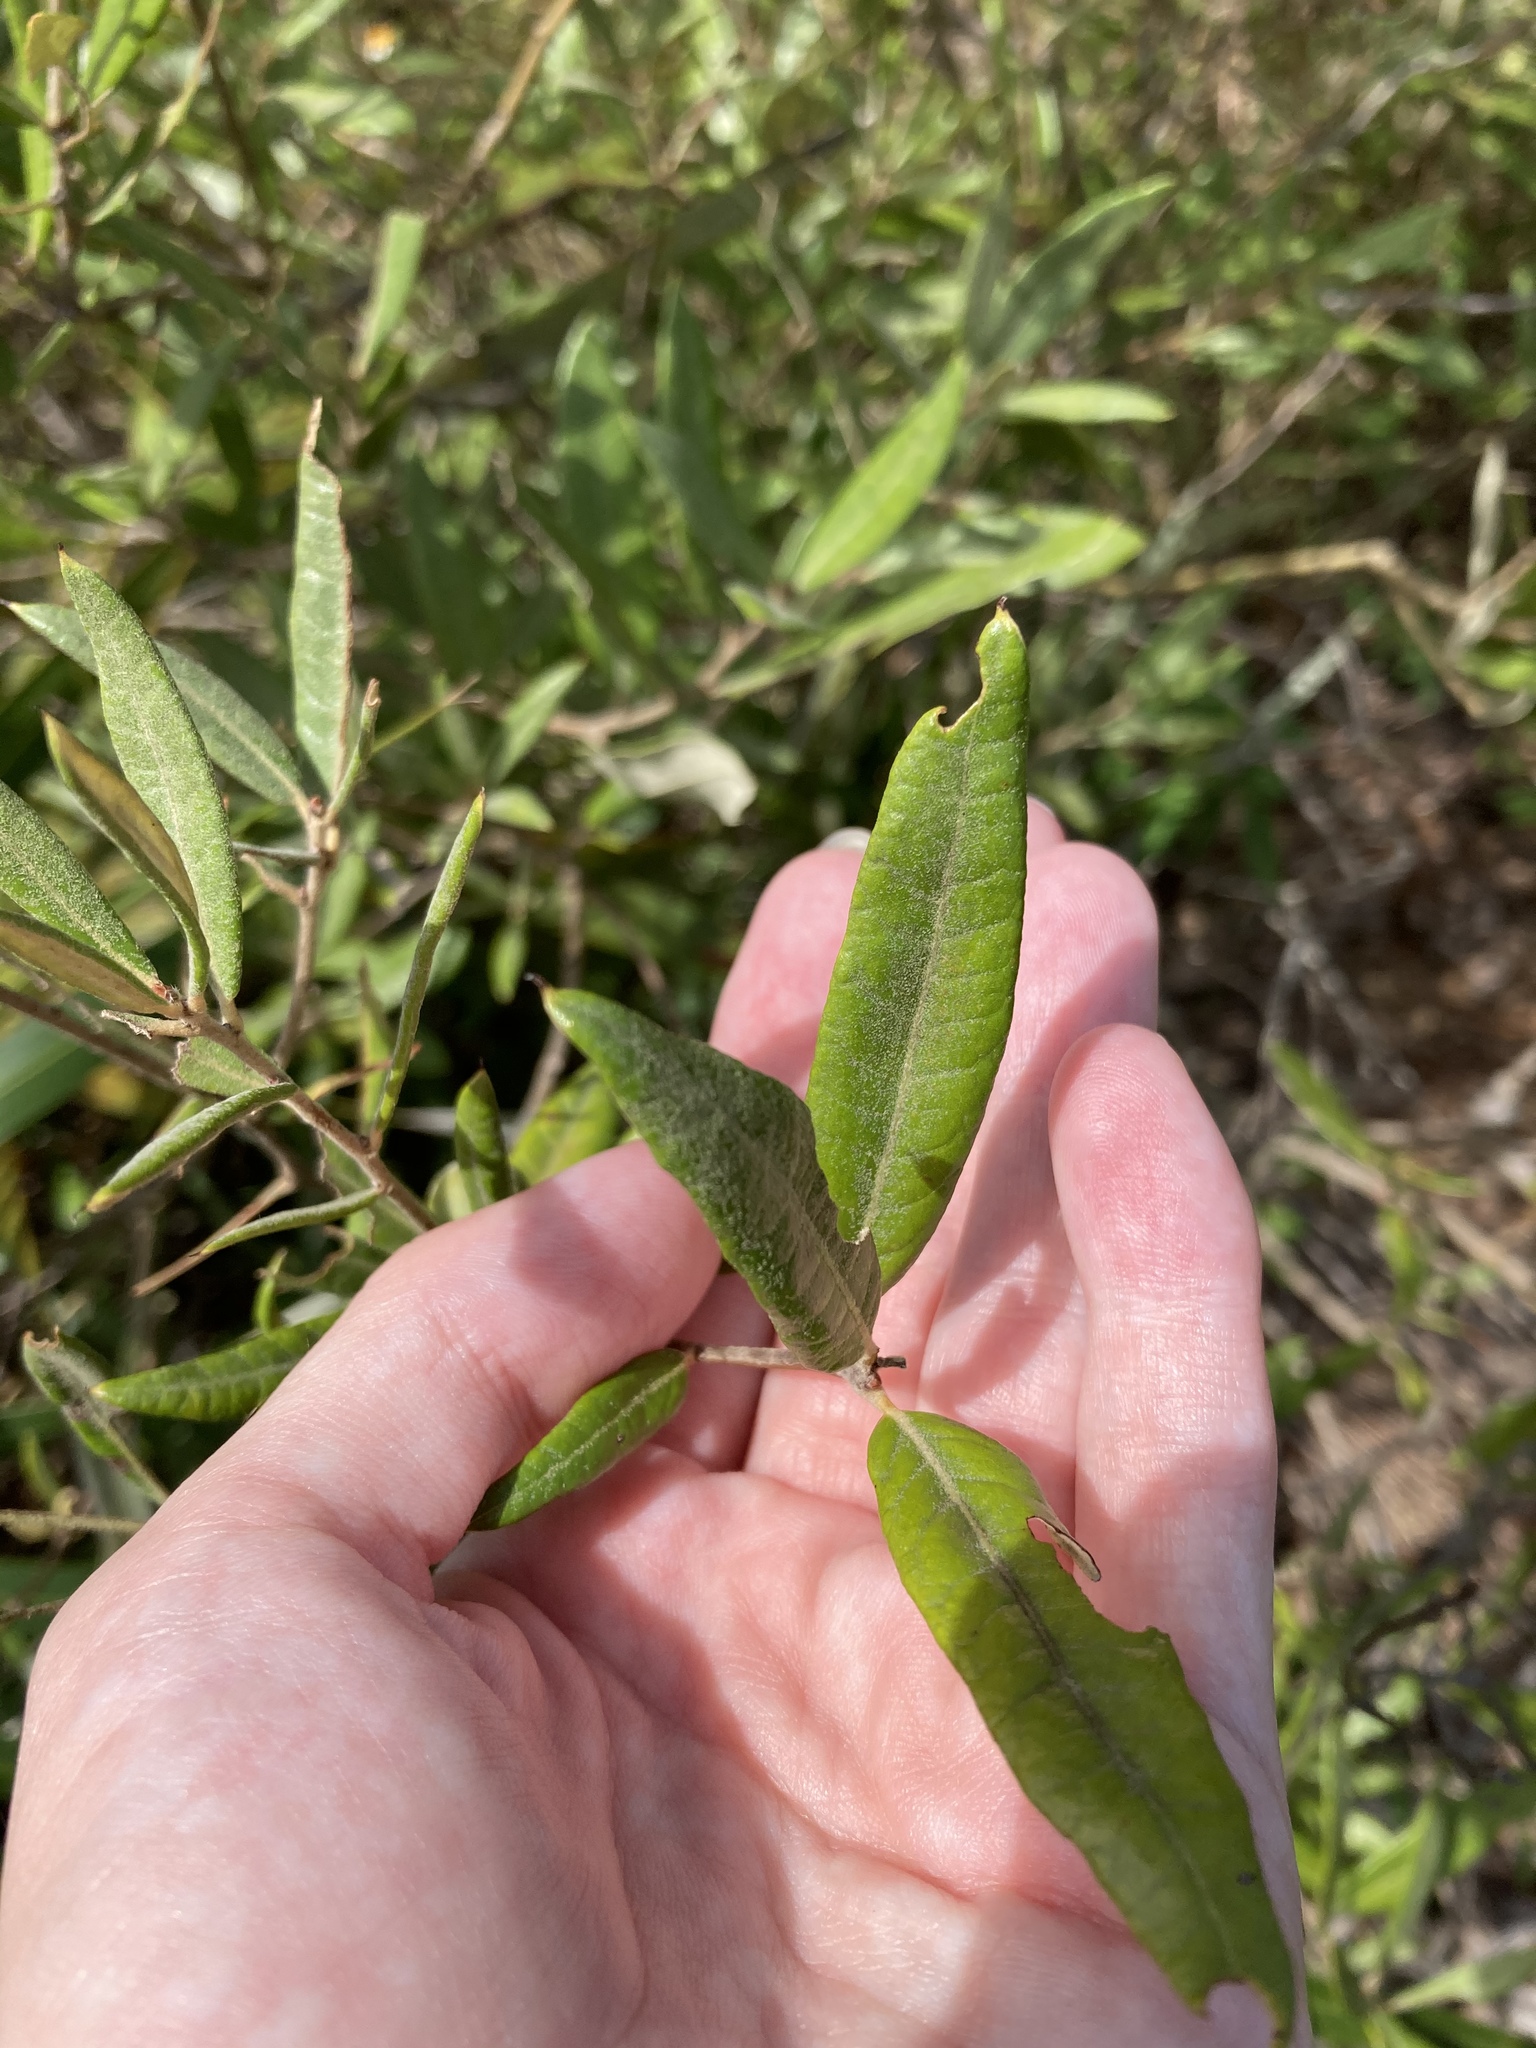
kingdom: Plantae
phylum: Tracheophyta
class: Magnoliopsida
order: Fagales
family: Fagaceae
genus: Quercus
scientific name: Quercus pumila
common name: Runner oak
